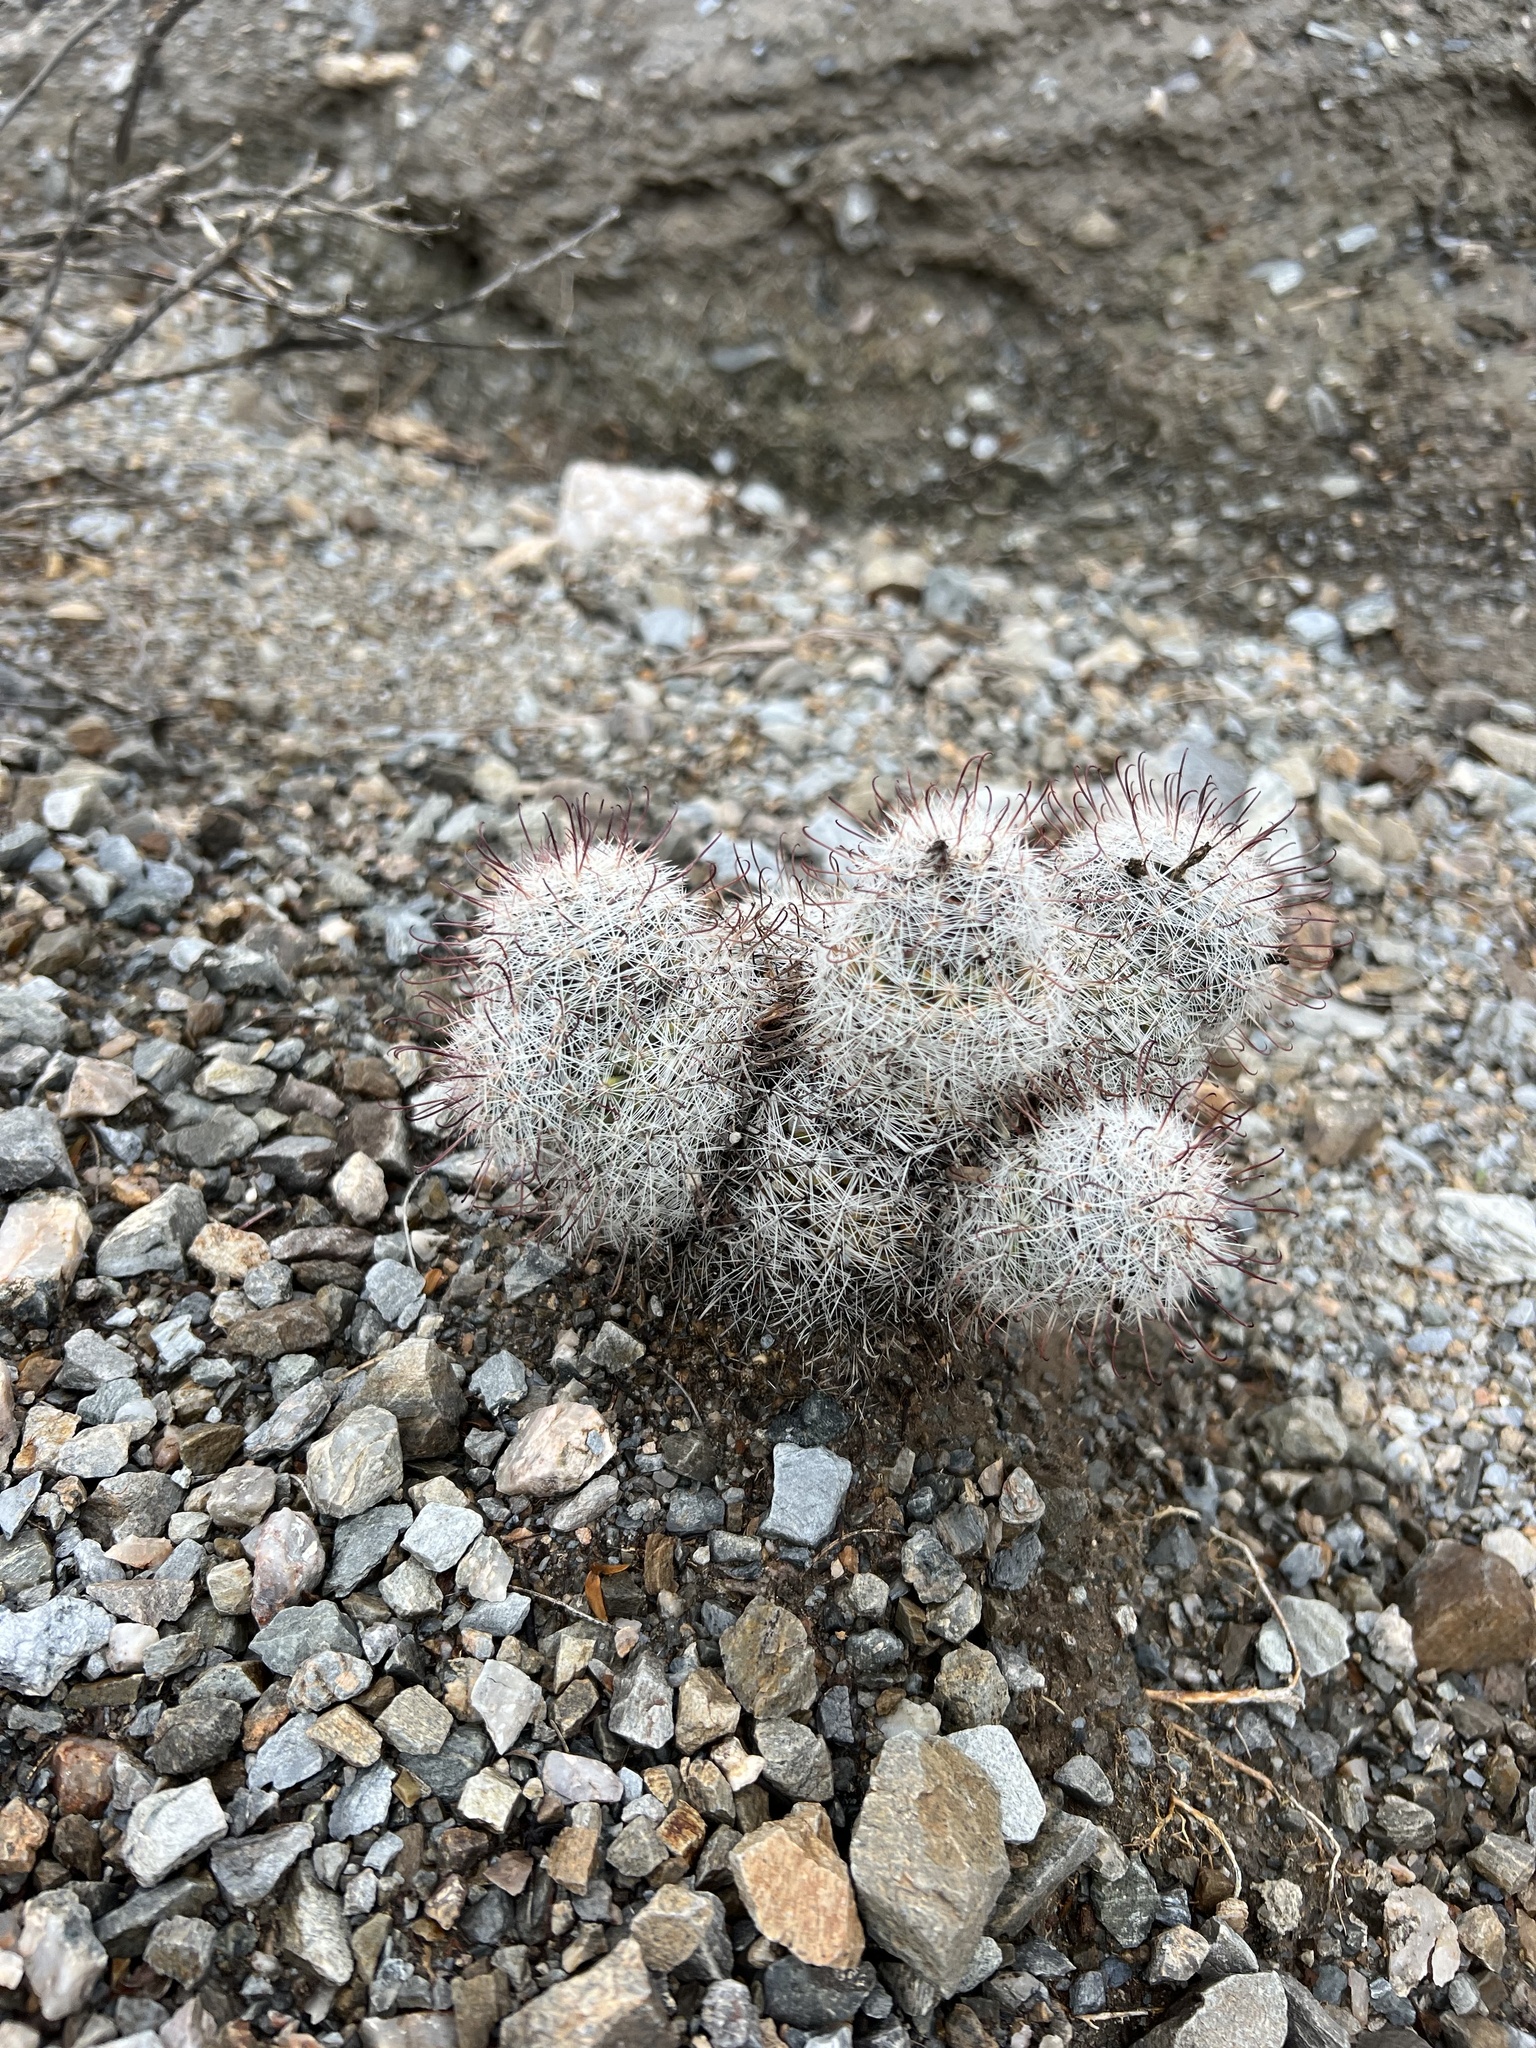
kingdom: Plantae
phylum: Tracheophyta
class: Magnoliopsida
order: Caryophyllales
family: Cactaceae
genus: Cochemiea
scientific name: Cochemiea grahamii
